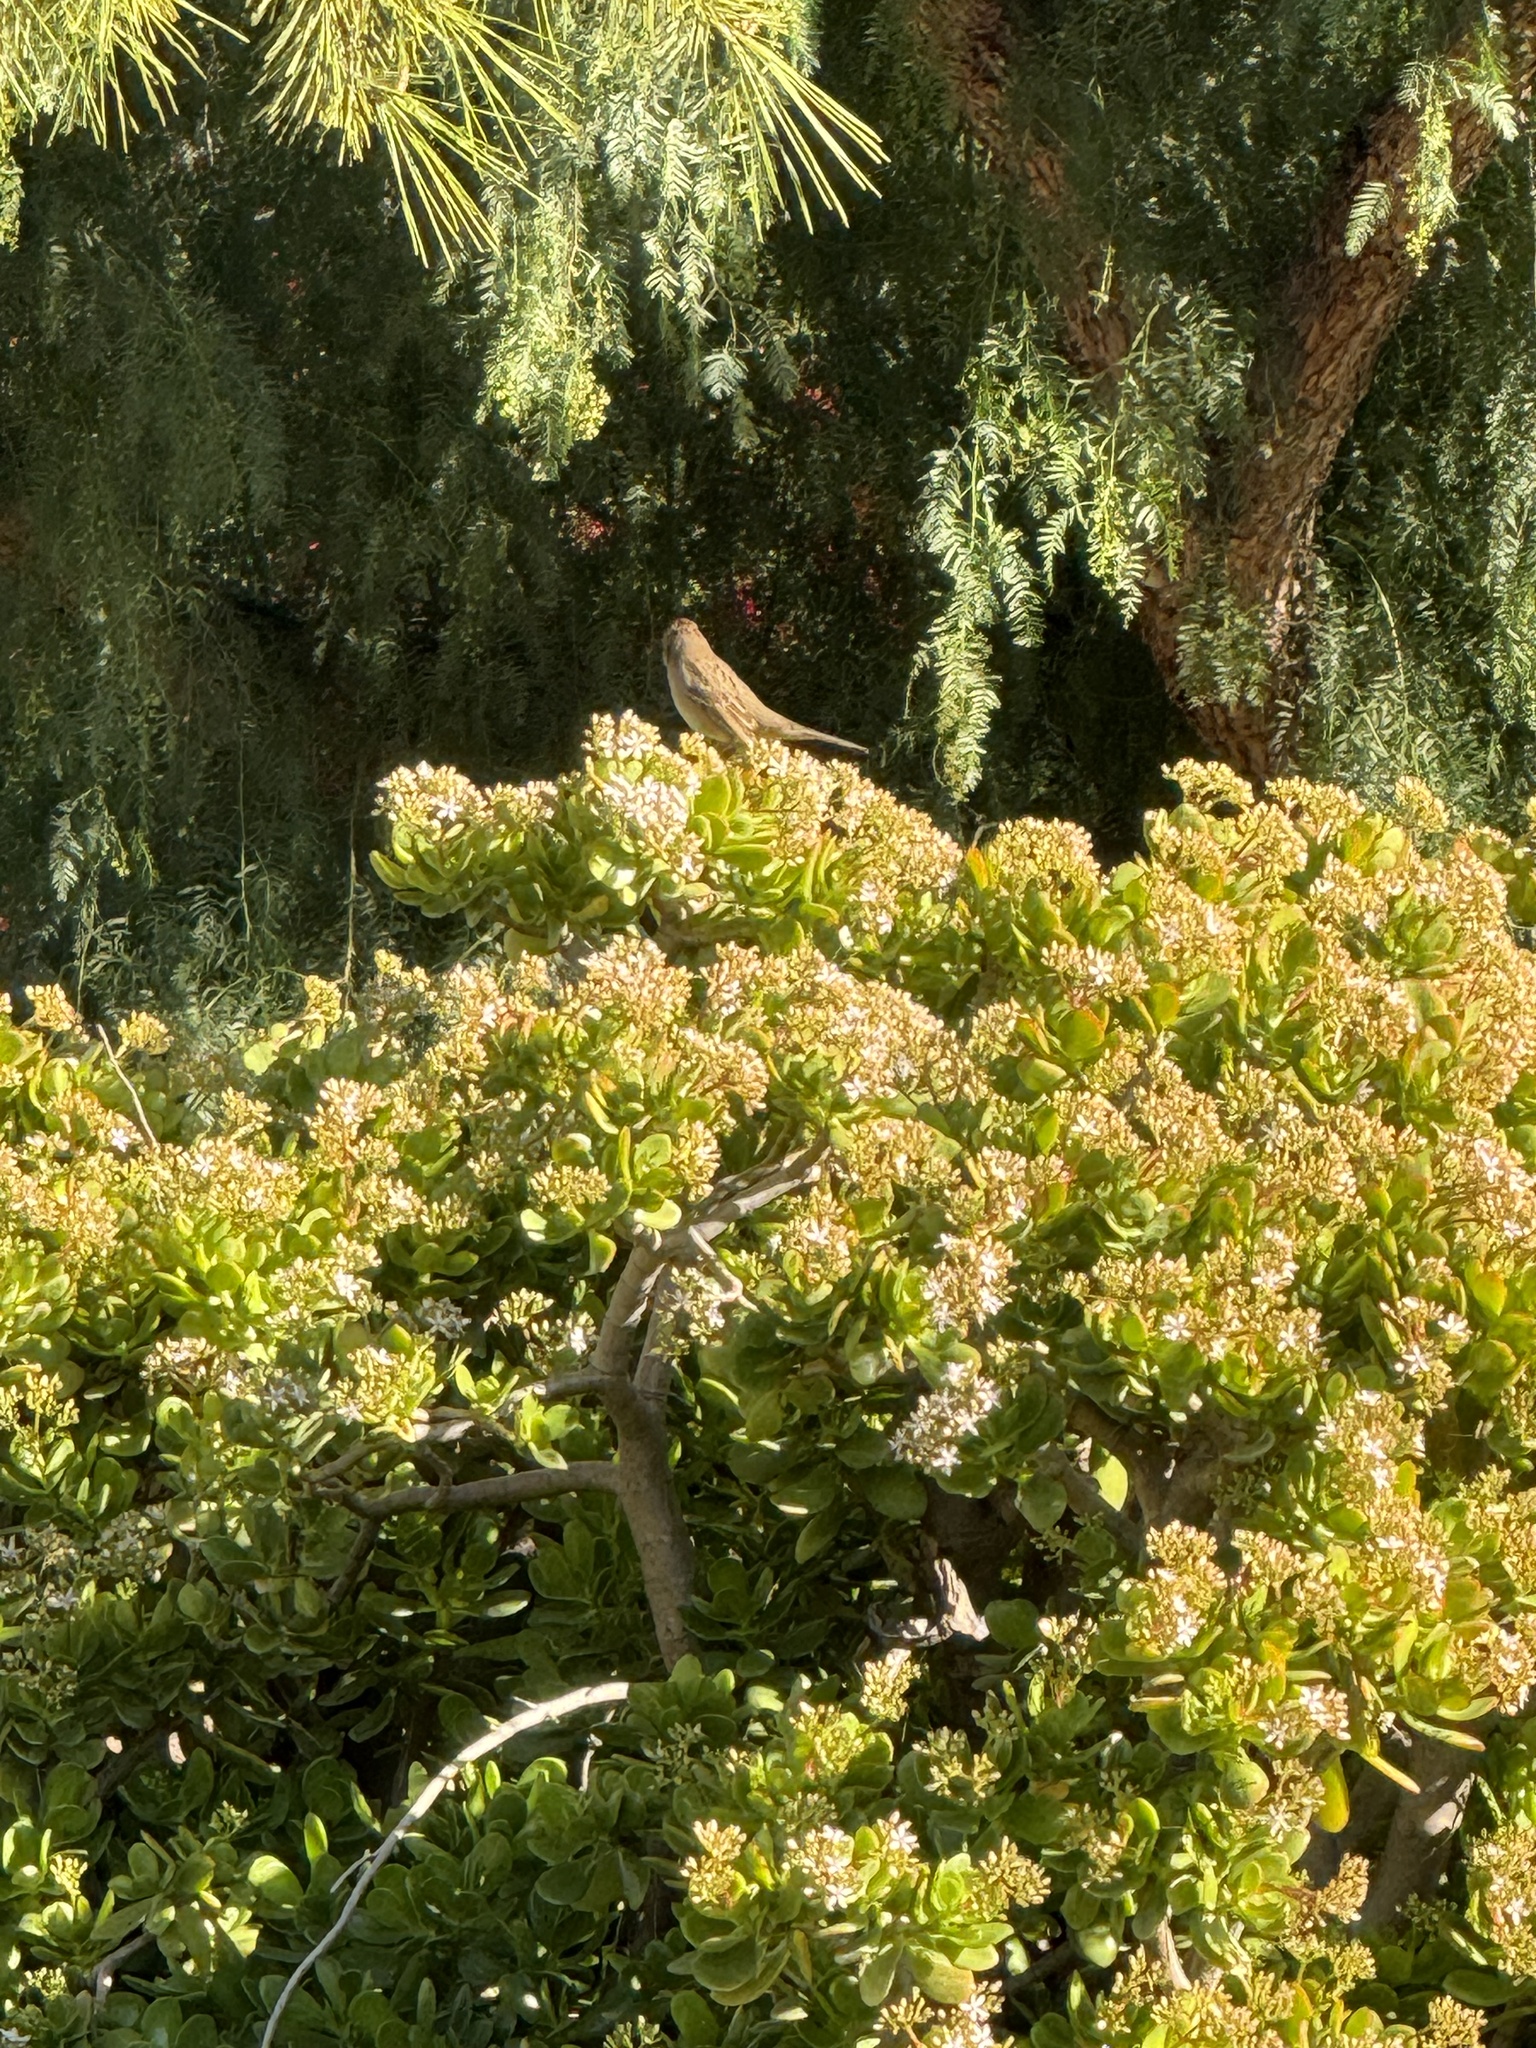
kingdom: Animalia
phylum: Chordata
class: Aves
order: Passeriformes
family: Passerellidae
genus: Zonotrichia
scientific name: Zonotrichia leucophrys
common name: White-crowned sparrow
